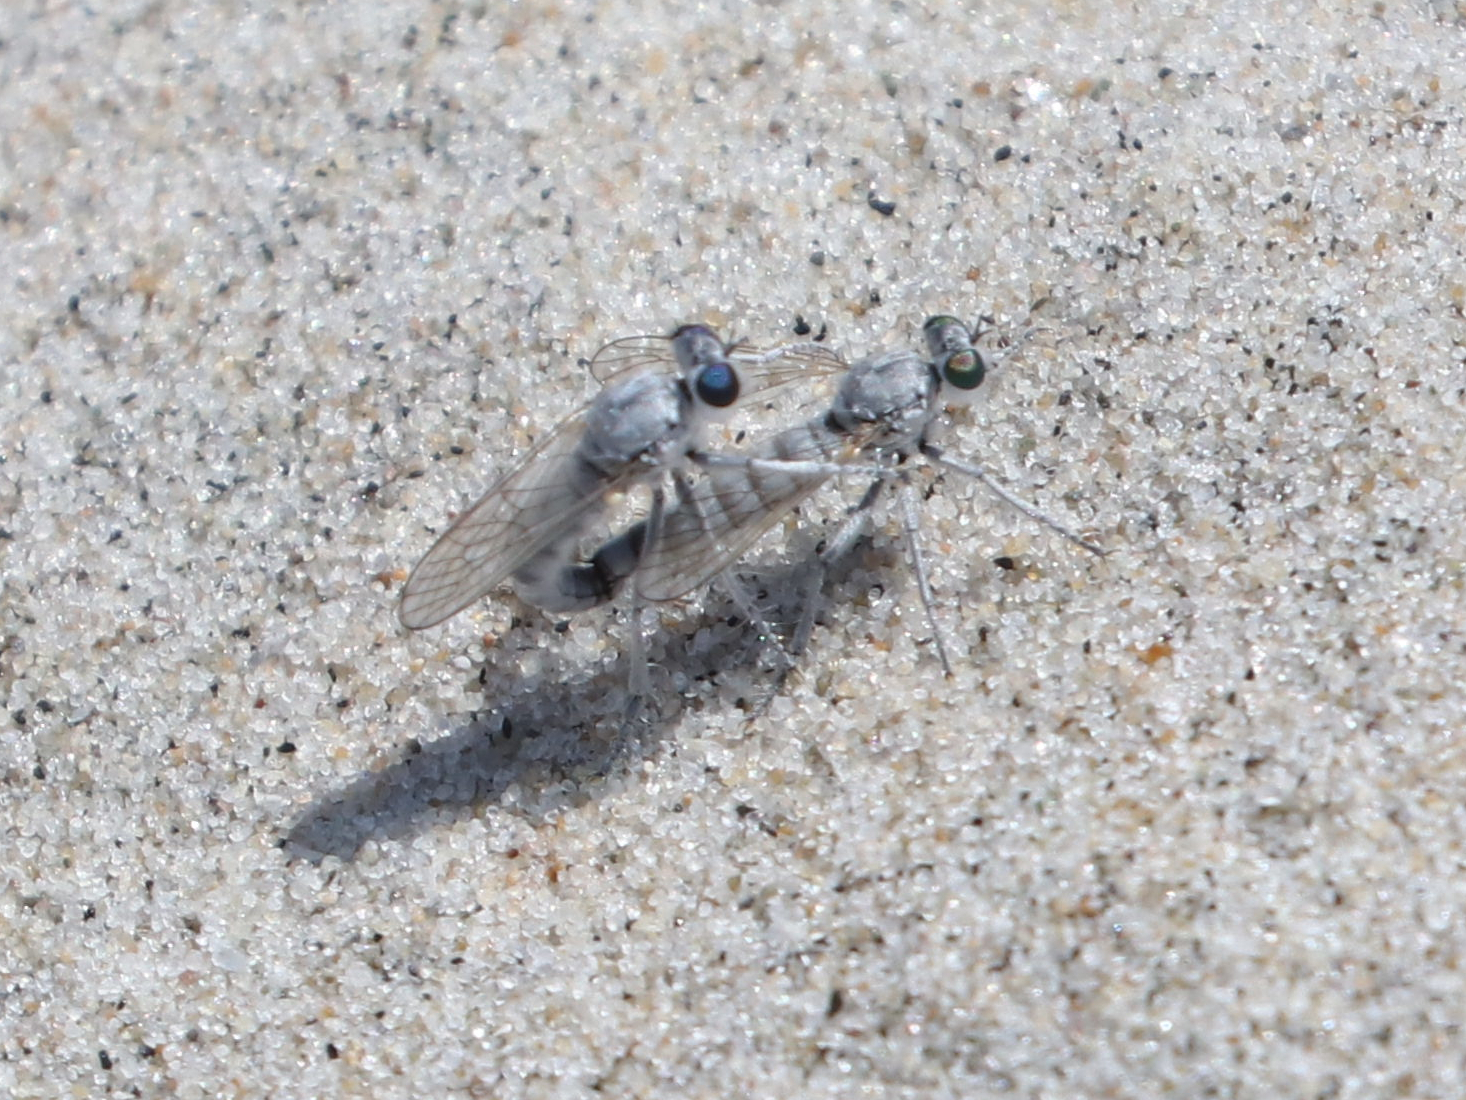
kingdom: Animalia
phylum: Arthropoda
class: Insecta
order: Diptera
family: Asilidae
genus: Stichopogon
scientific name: Stichopogon argenteus
